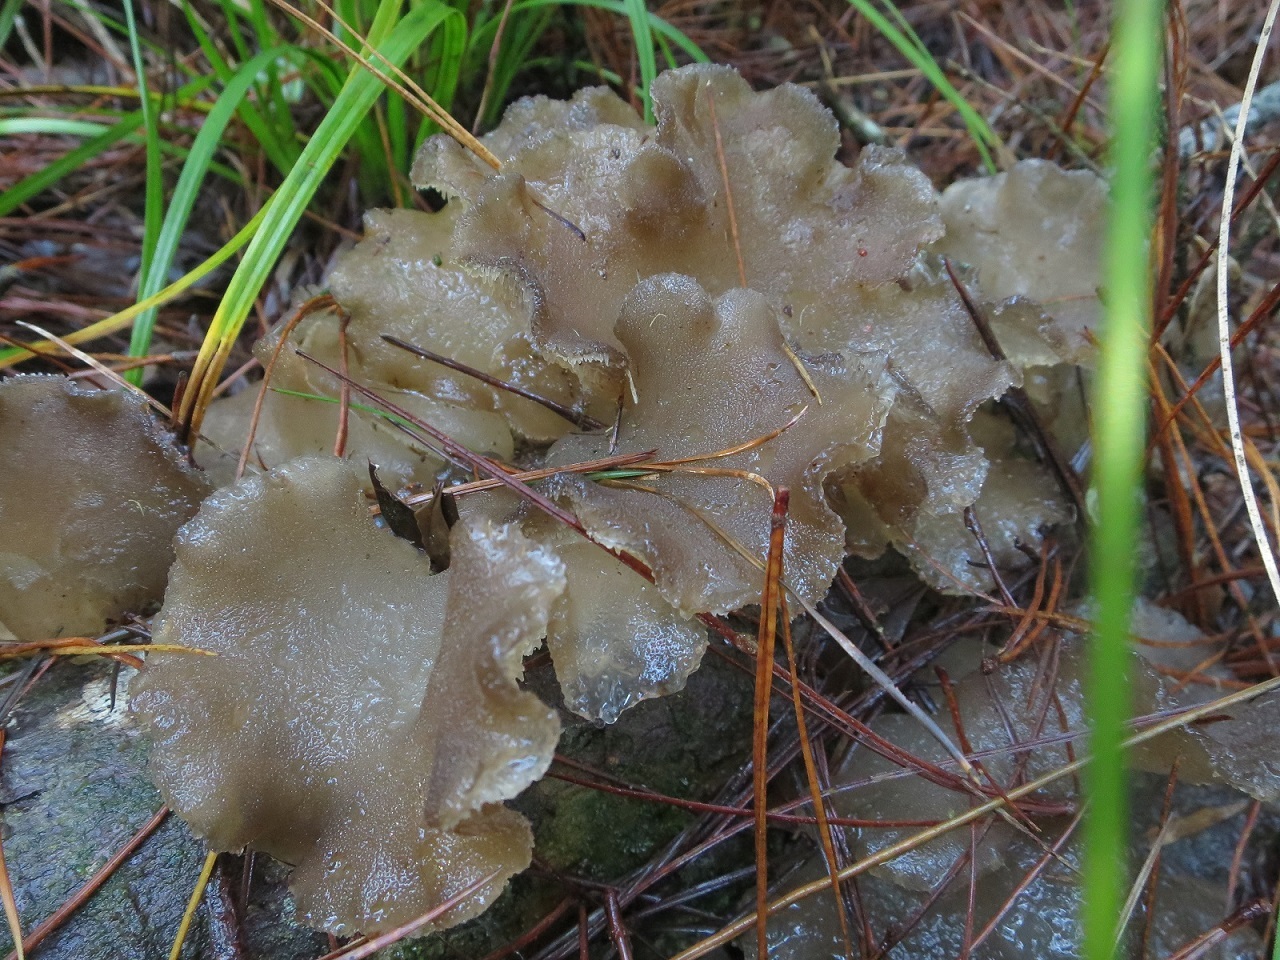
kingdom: Fungi
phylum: Basidiomycota
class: Agaricomycetes
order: Auriculariales
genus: Pseudohydnum
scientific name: Pseudohydnum orbiculare
